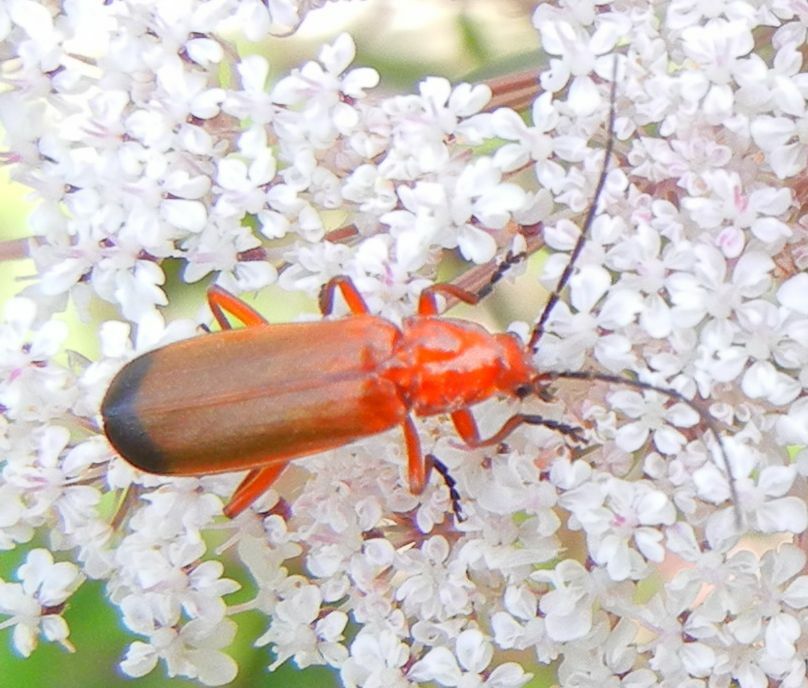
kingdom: Animalia
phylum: Arthropoda
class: Insecta
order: Coleoptera
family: Cantharidae
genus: Rhagonycha
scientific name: Rhagonycha fulva
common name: Common red soldier beetle
